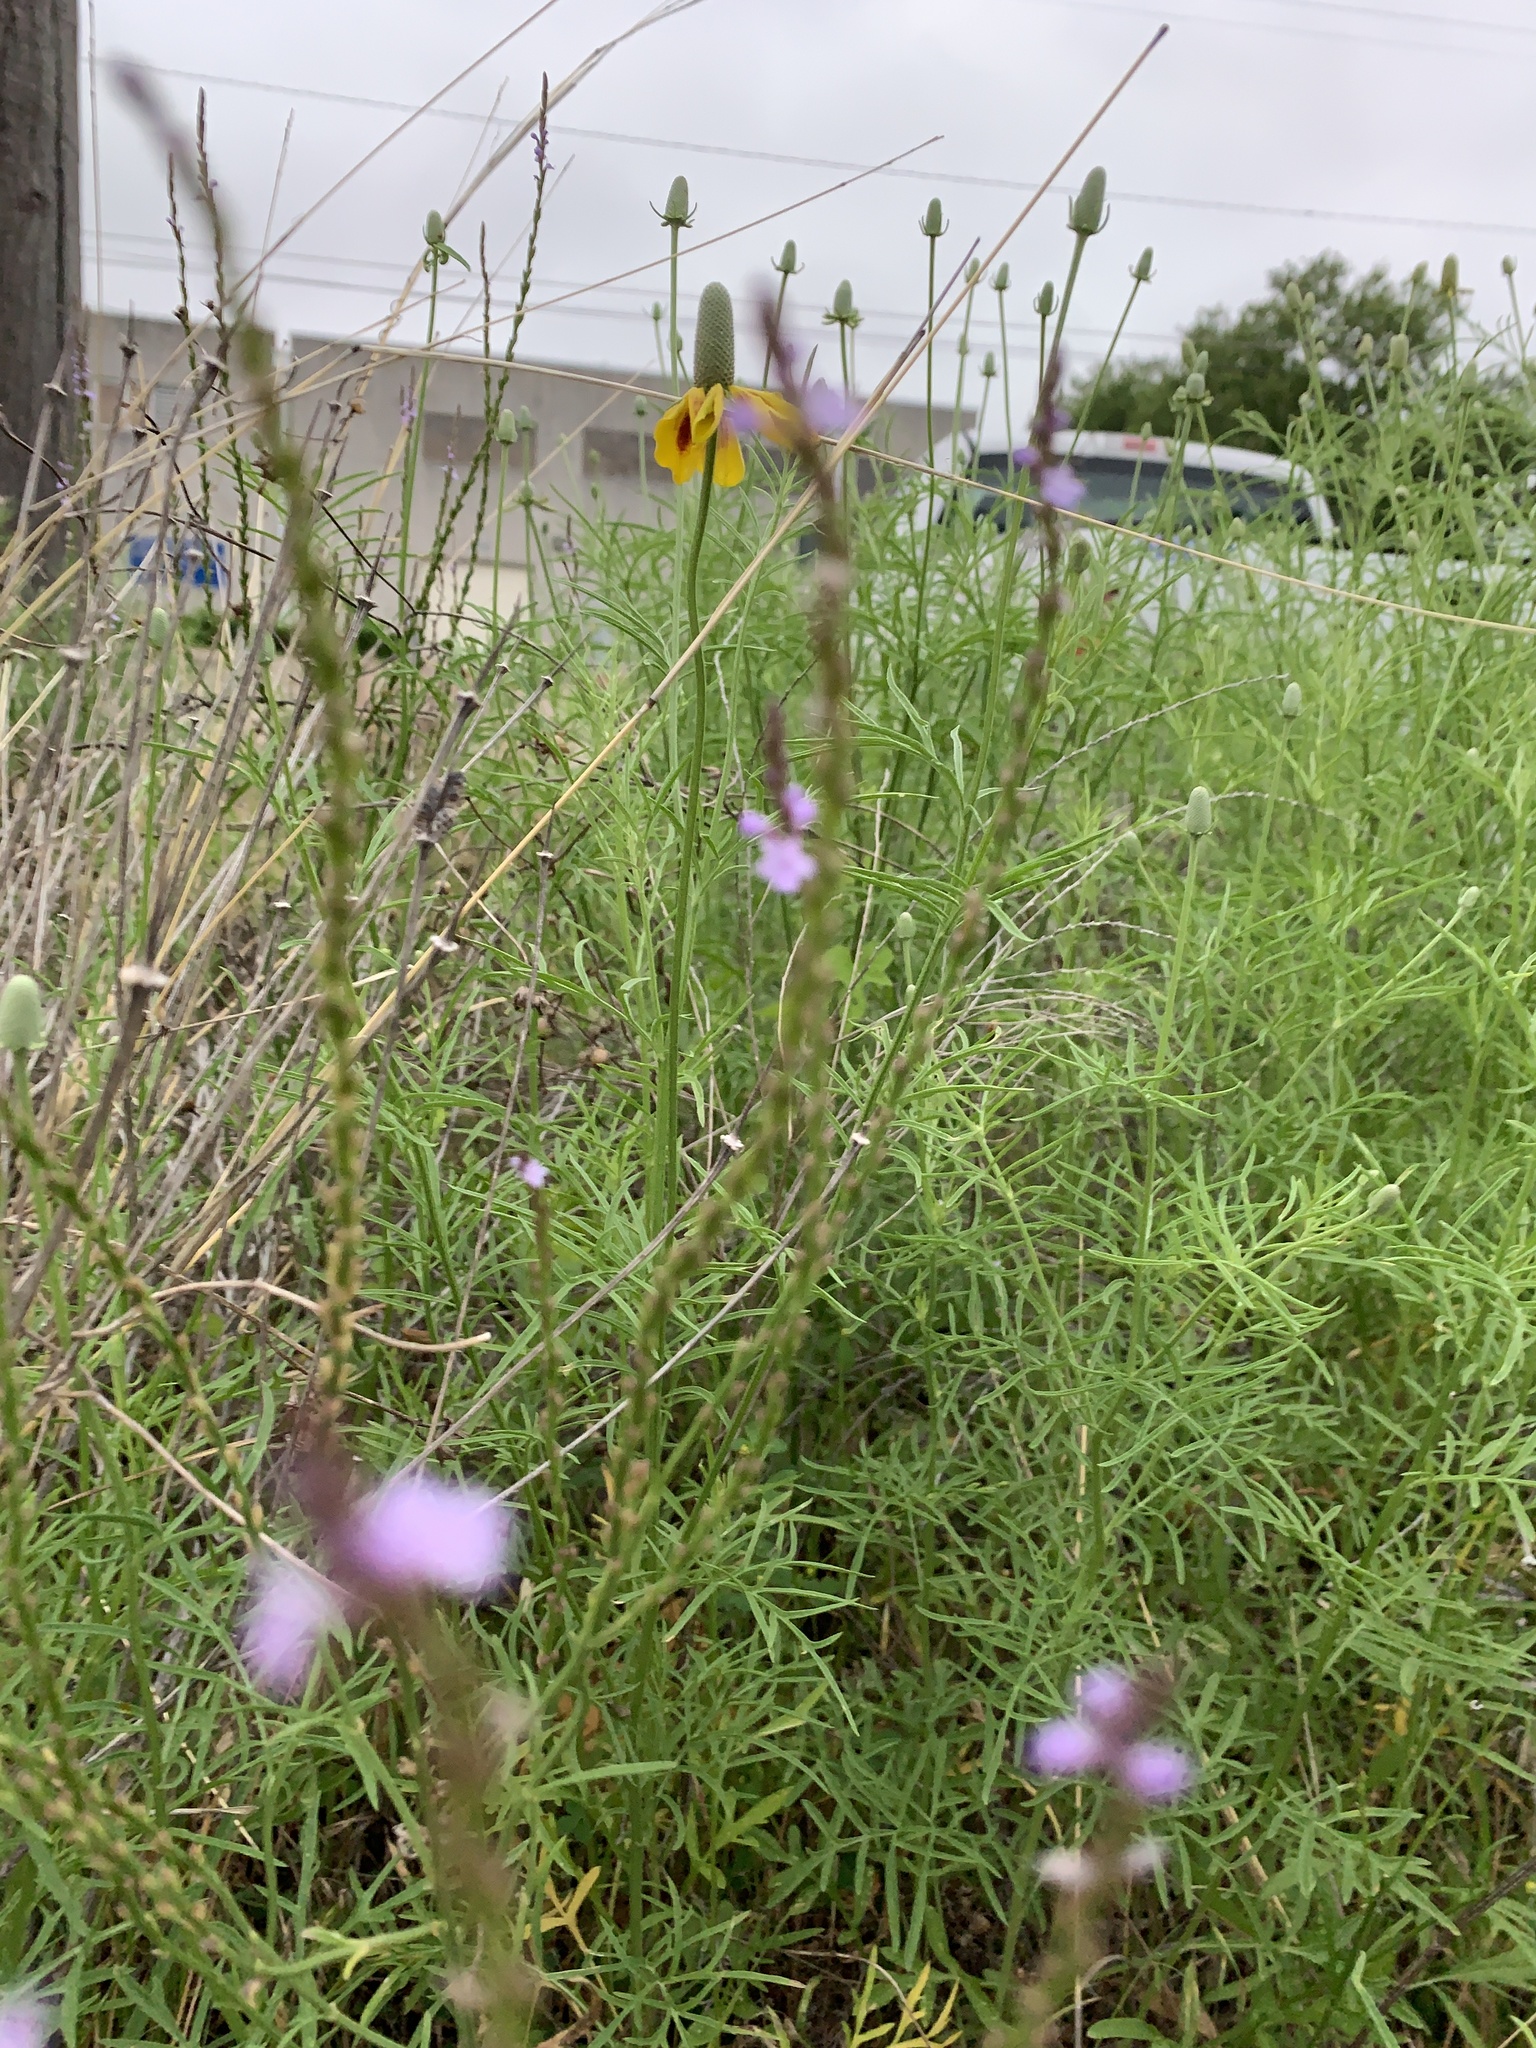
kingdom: Plantae
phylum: Tracheophyta
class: Magnoliopsida
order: Lamiales
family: Verbenaceae
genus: Verbena
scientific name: Verbena halei
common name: Texas vervain
